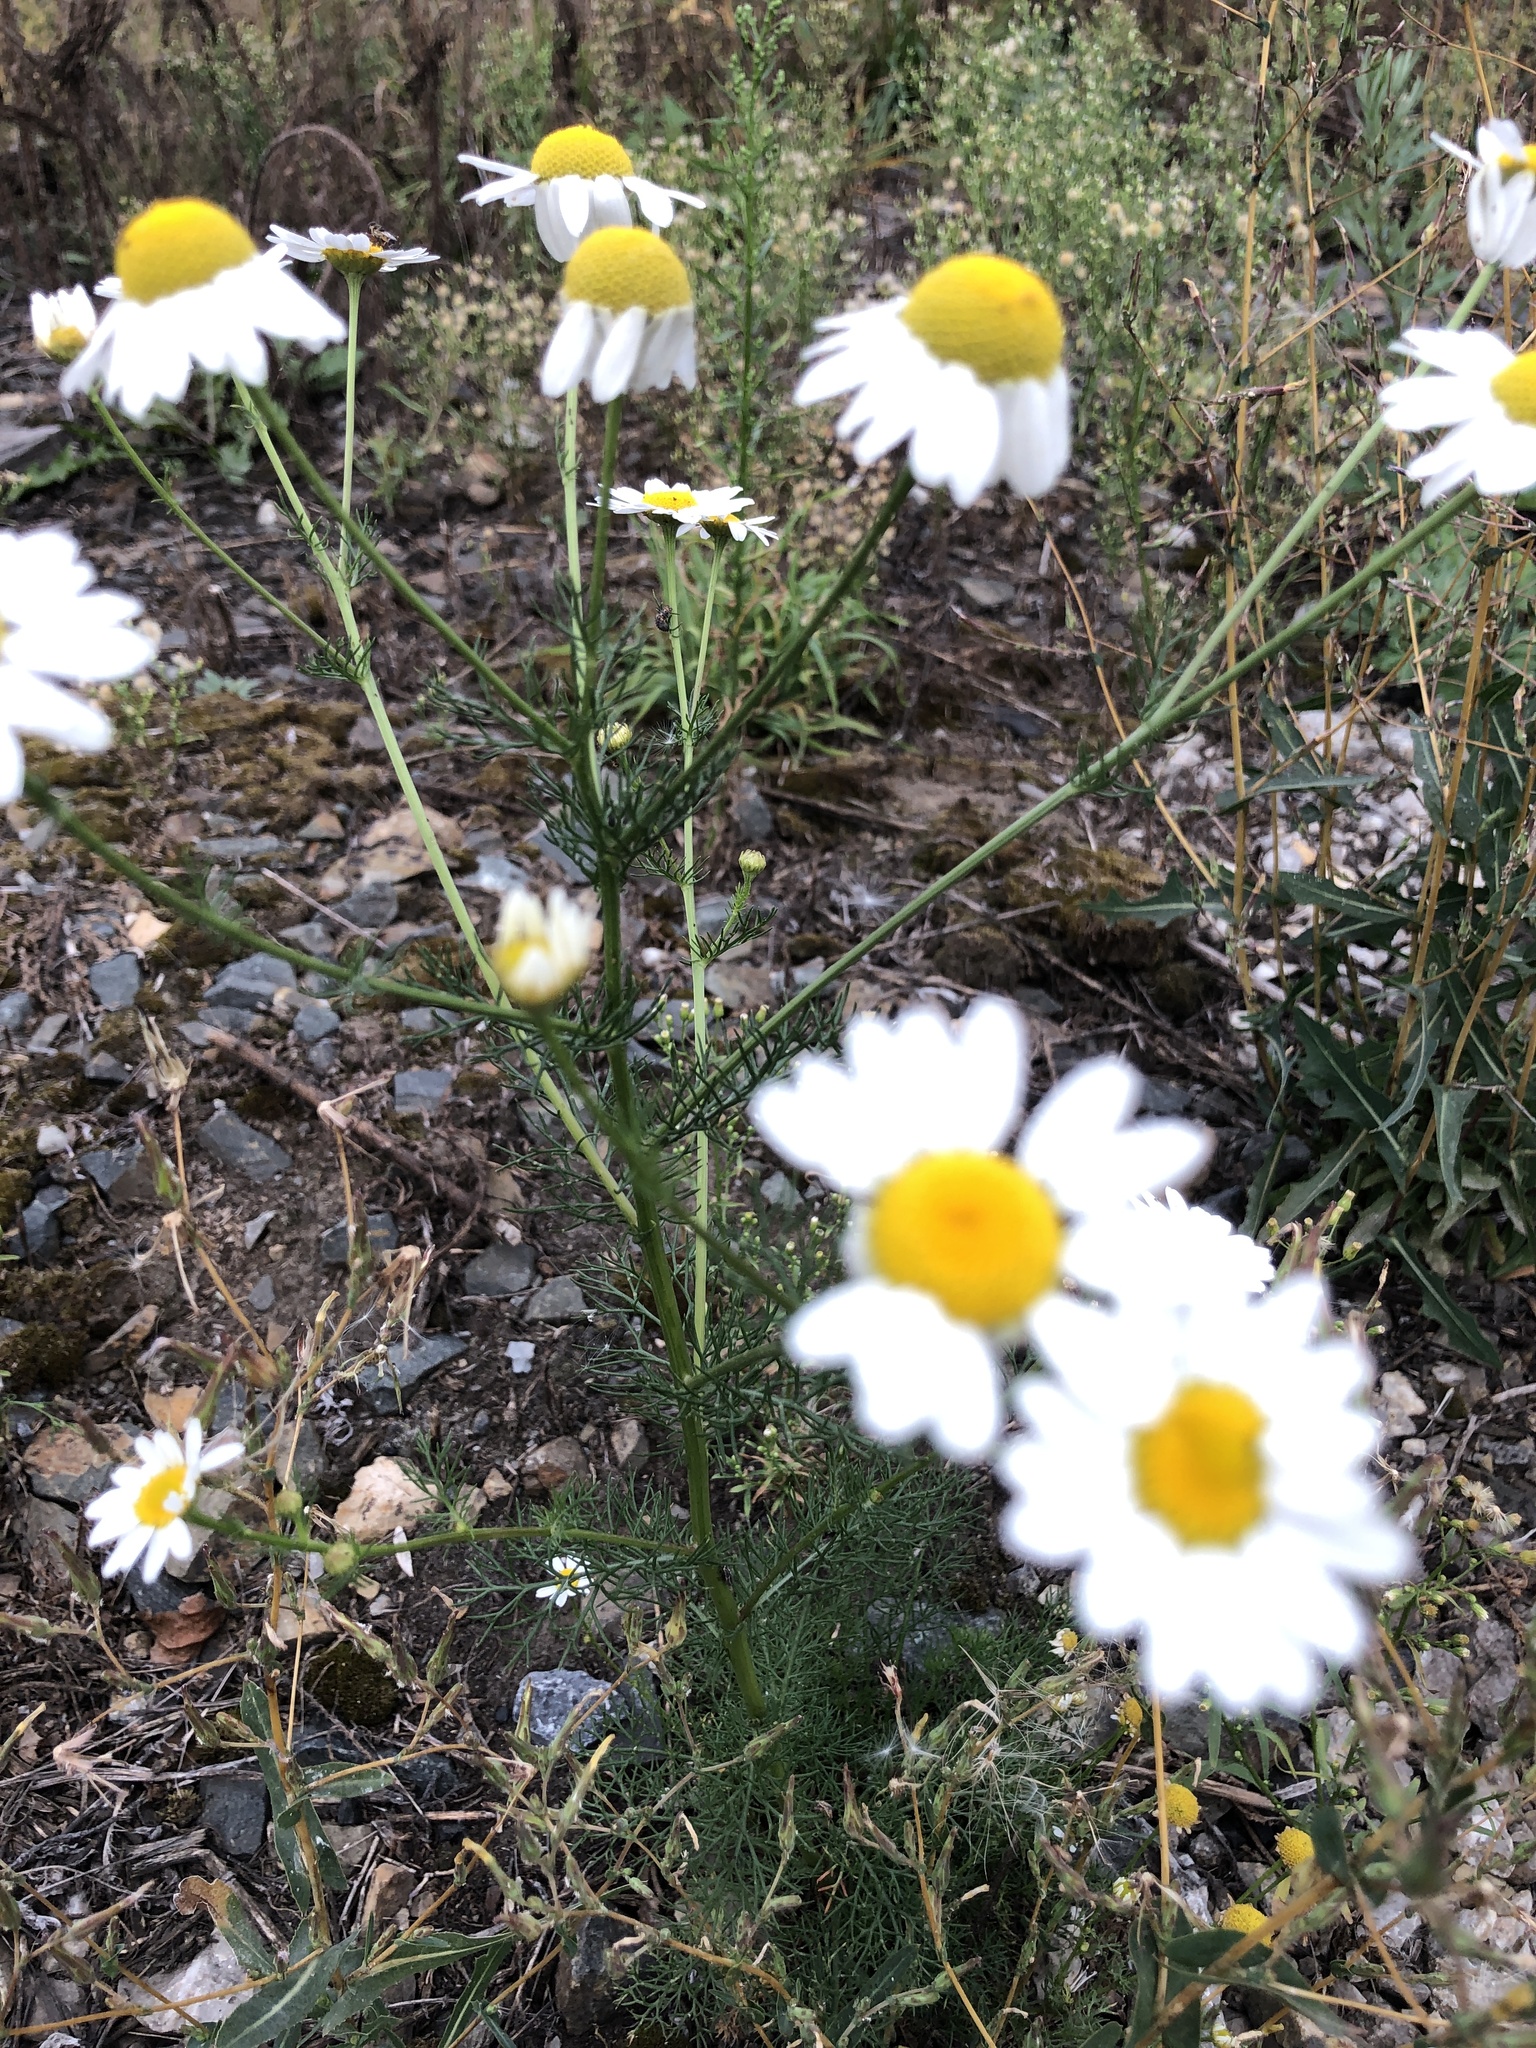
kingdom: Plantae
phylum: Tracheophyta
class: Magnoliopsida
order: Asterales
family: Asteraceae
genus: Tripleurospermum
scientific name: Tripleurospermum inodorum
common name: Scentless mayweed
